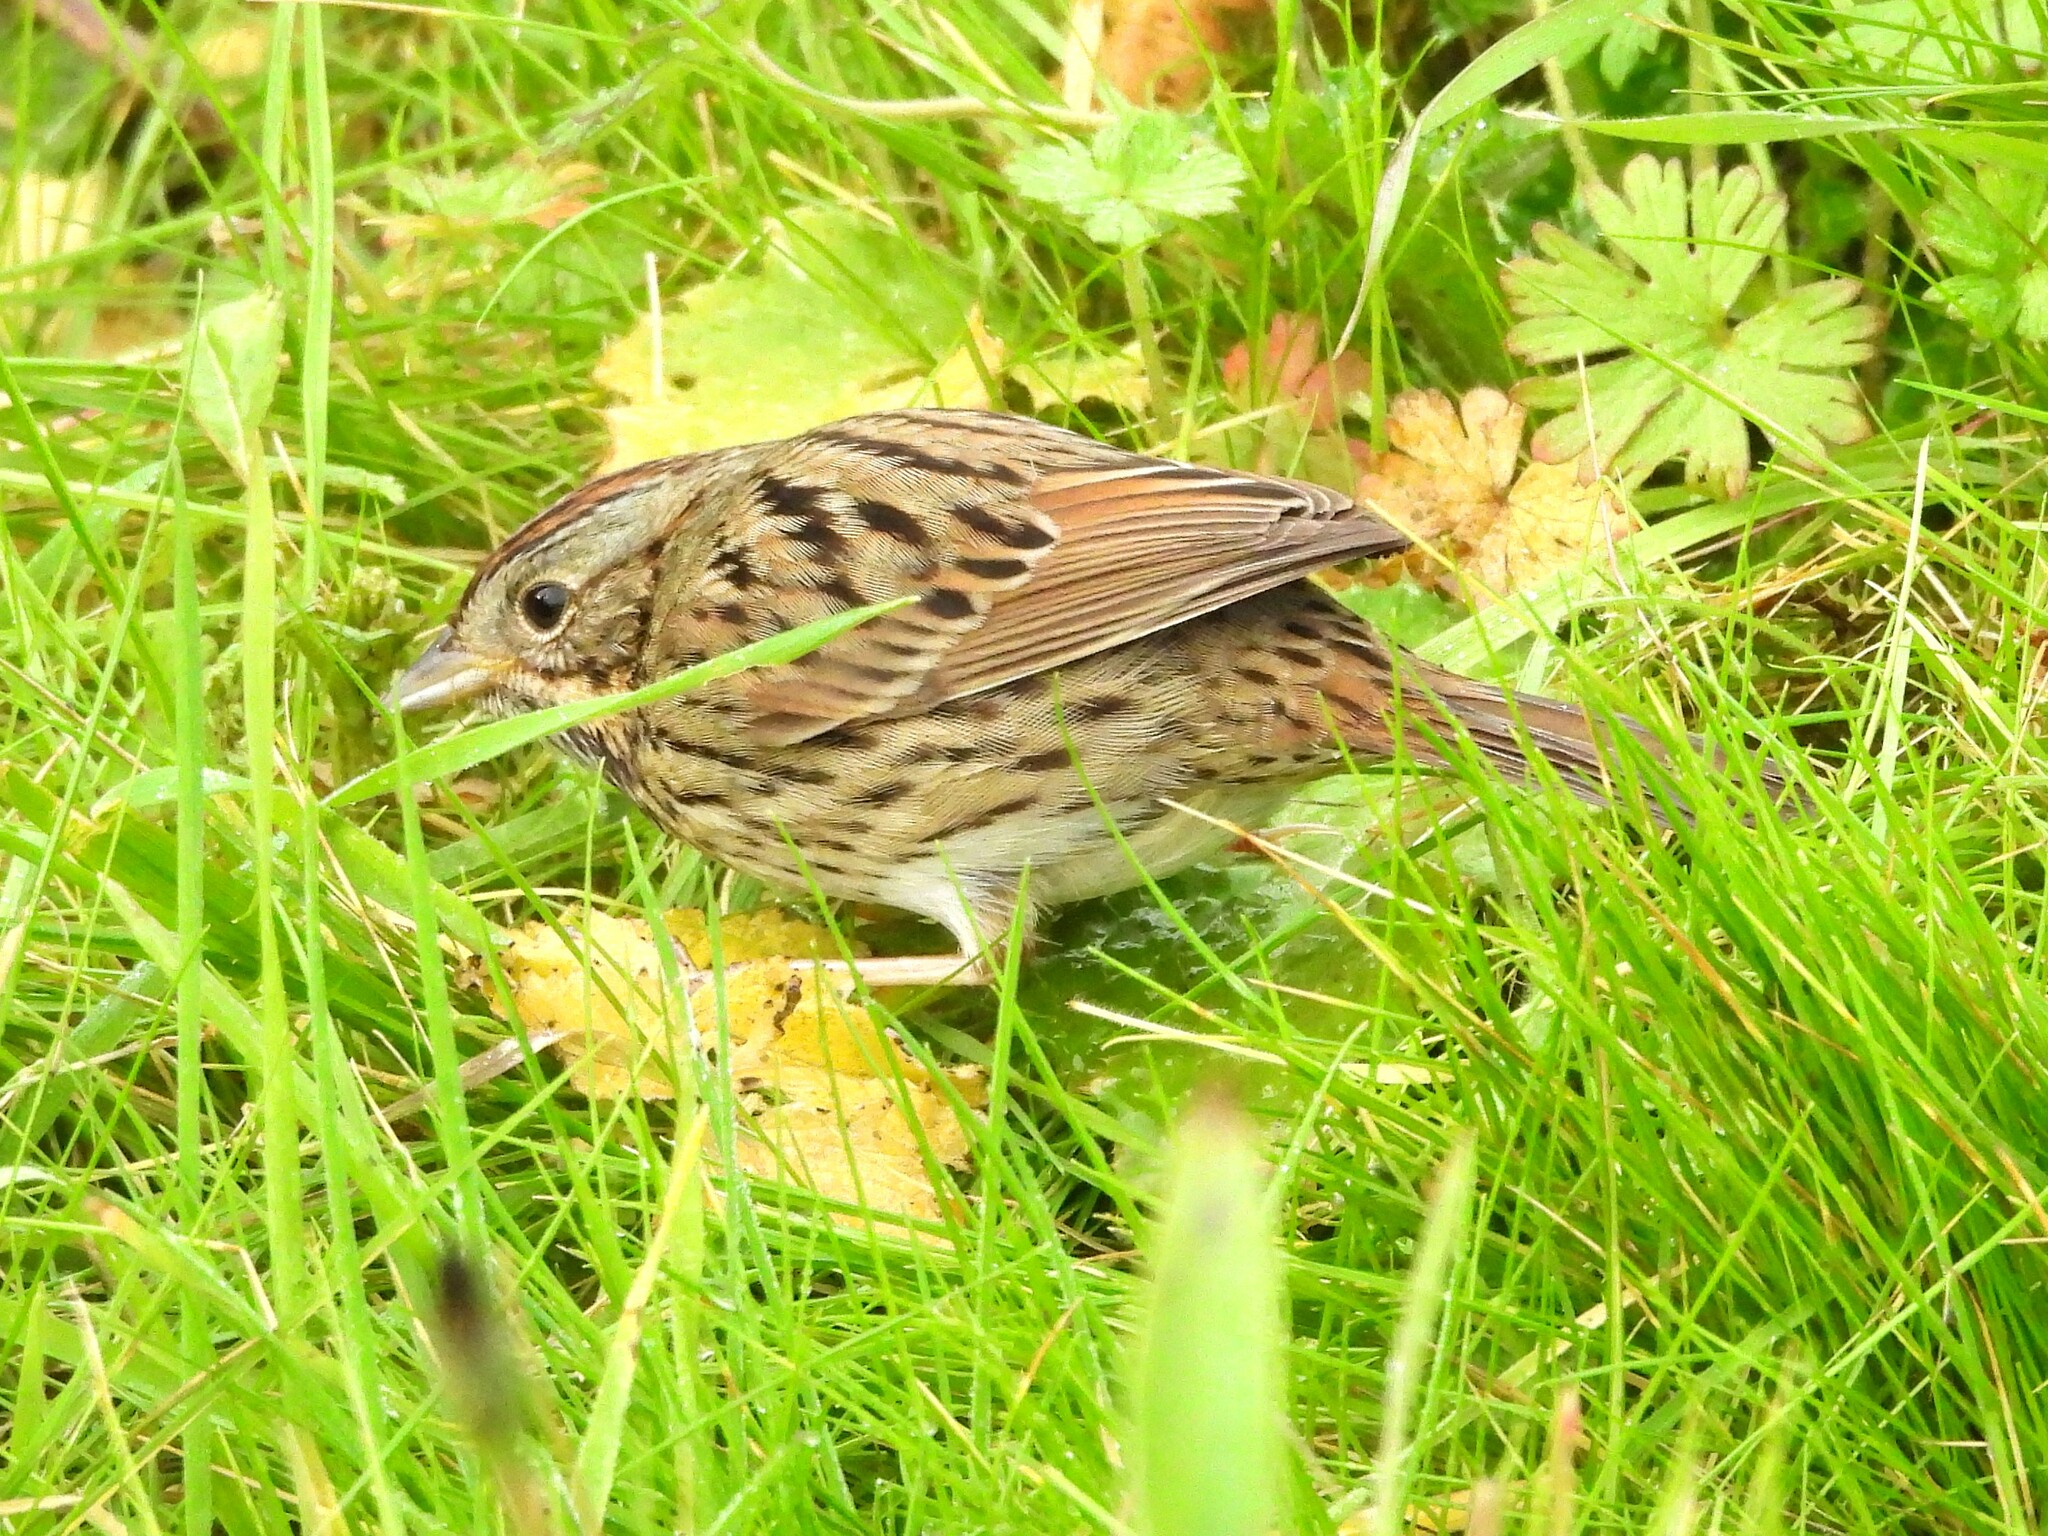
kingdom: Animalia
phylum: Chordata
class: Aves
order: Passeriformes
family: Passerellidae
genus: Melospiza
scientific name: Melospiza lincolnii
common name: Lincoln's sparrow
